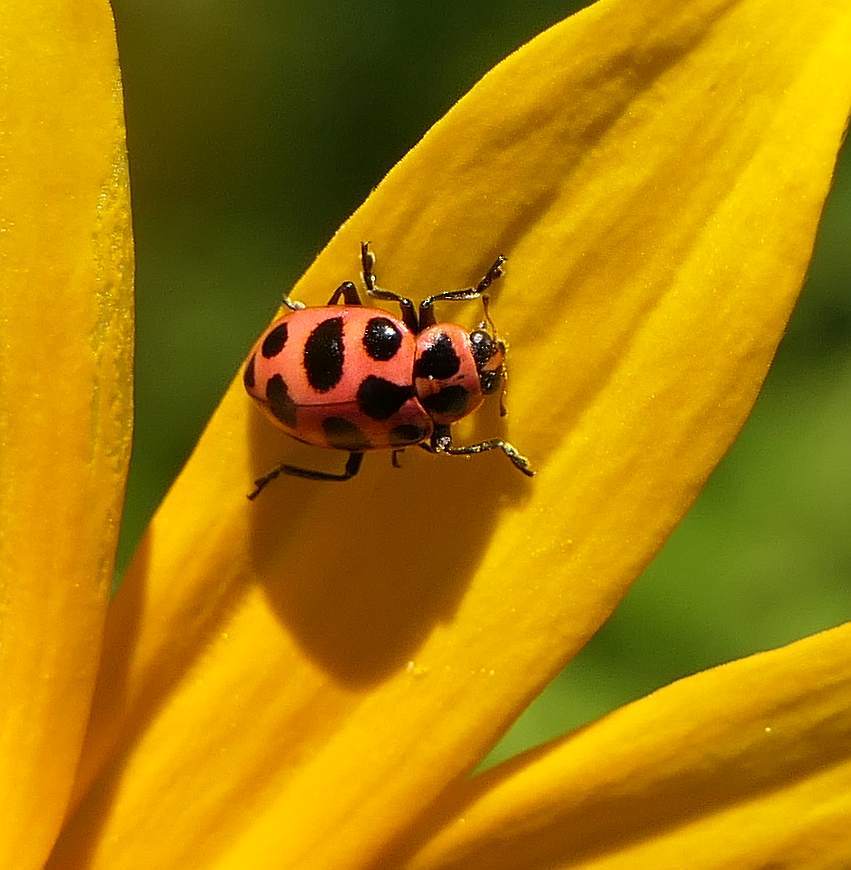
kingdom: Animalia
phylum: Arthropoda
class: Insecta
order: Coleoptera
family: Coccinellidae
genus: Coleomegilla
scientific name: Coleomegilla maculata
